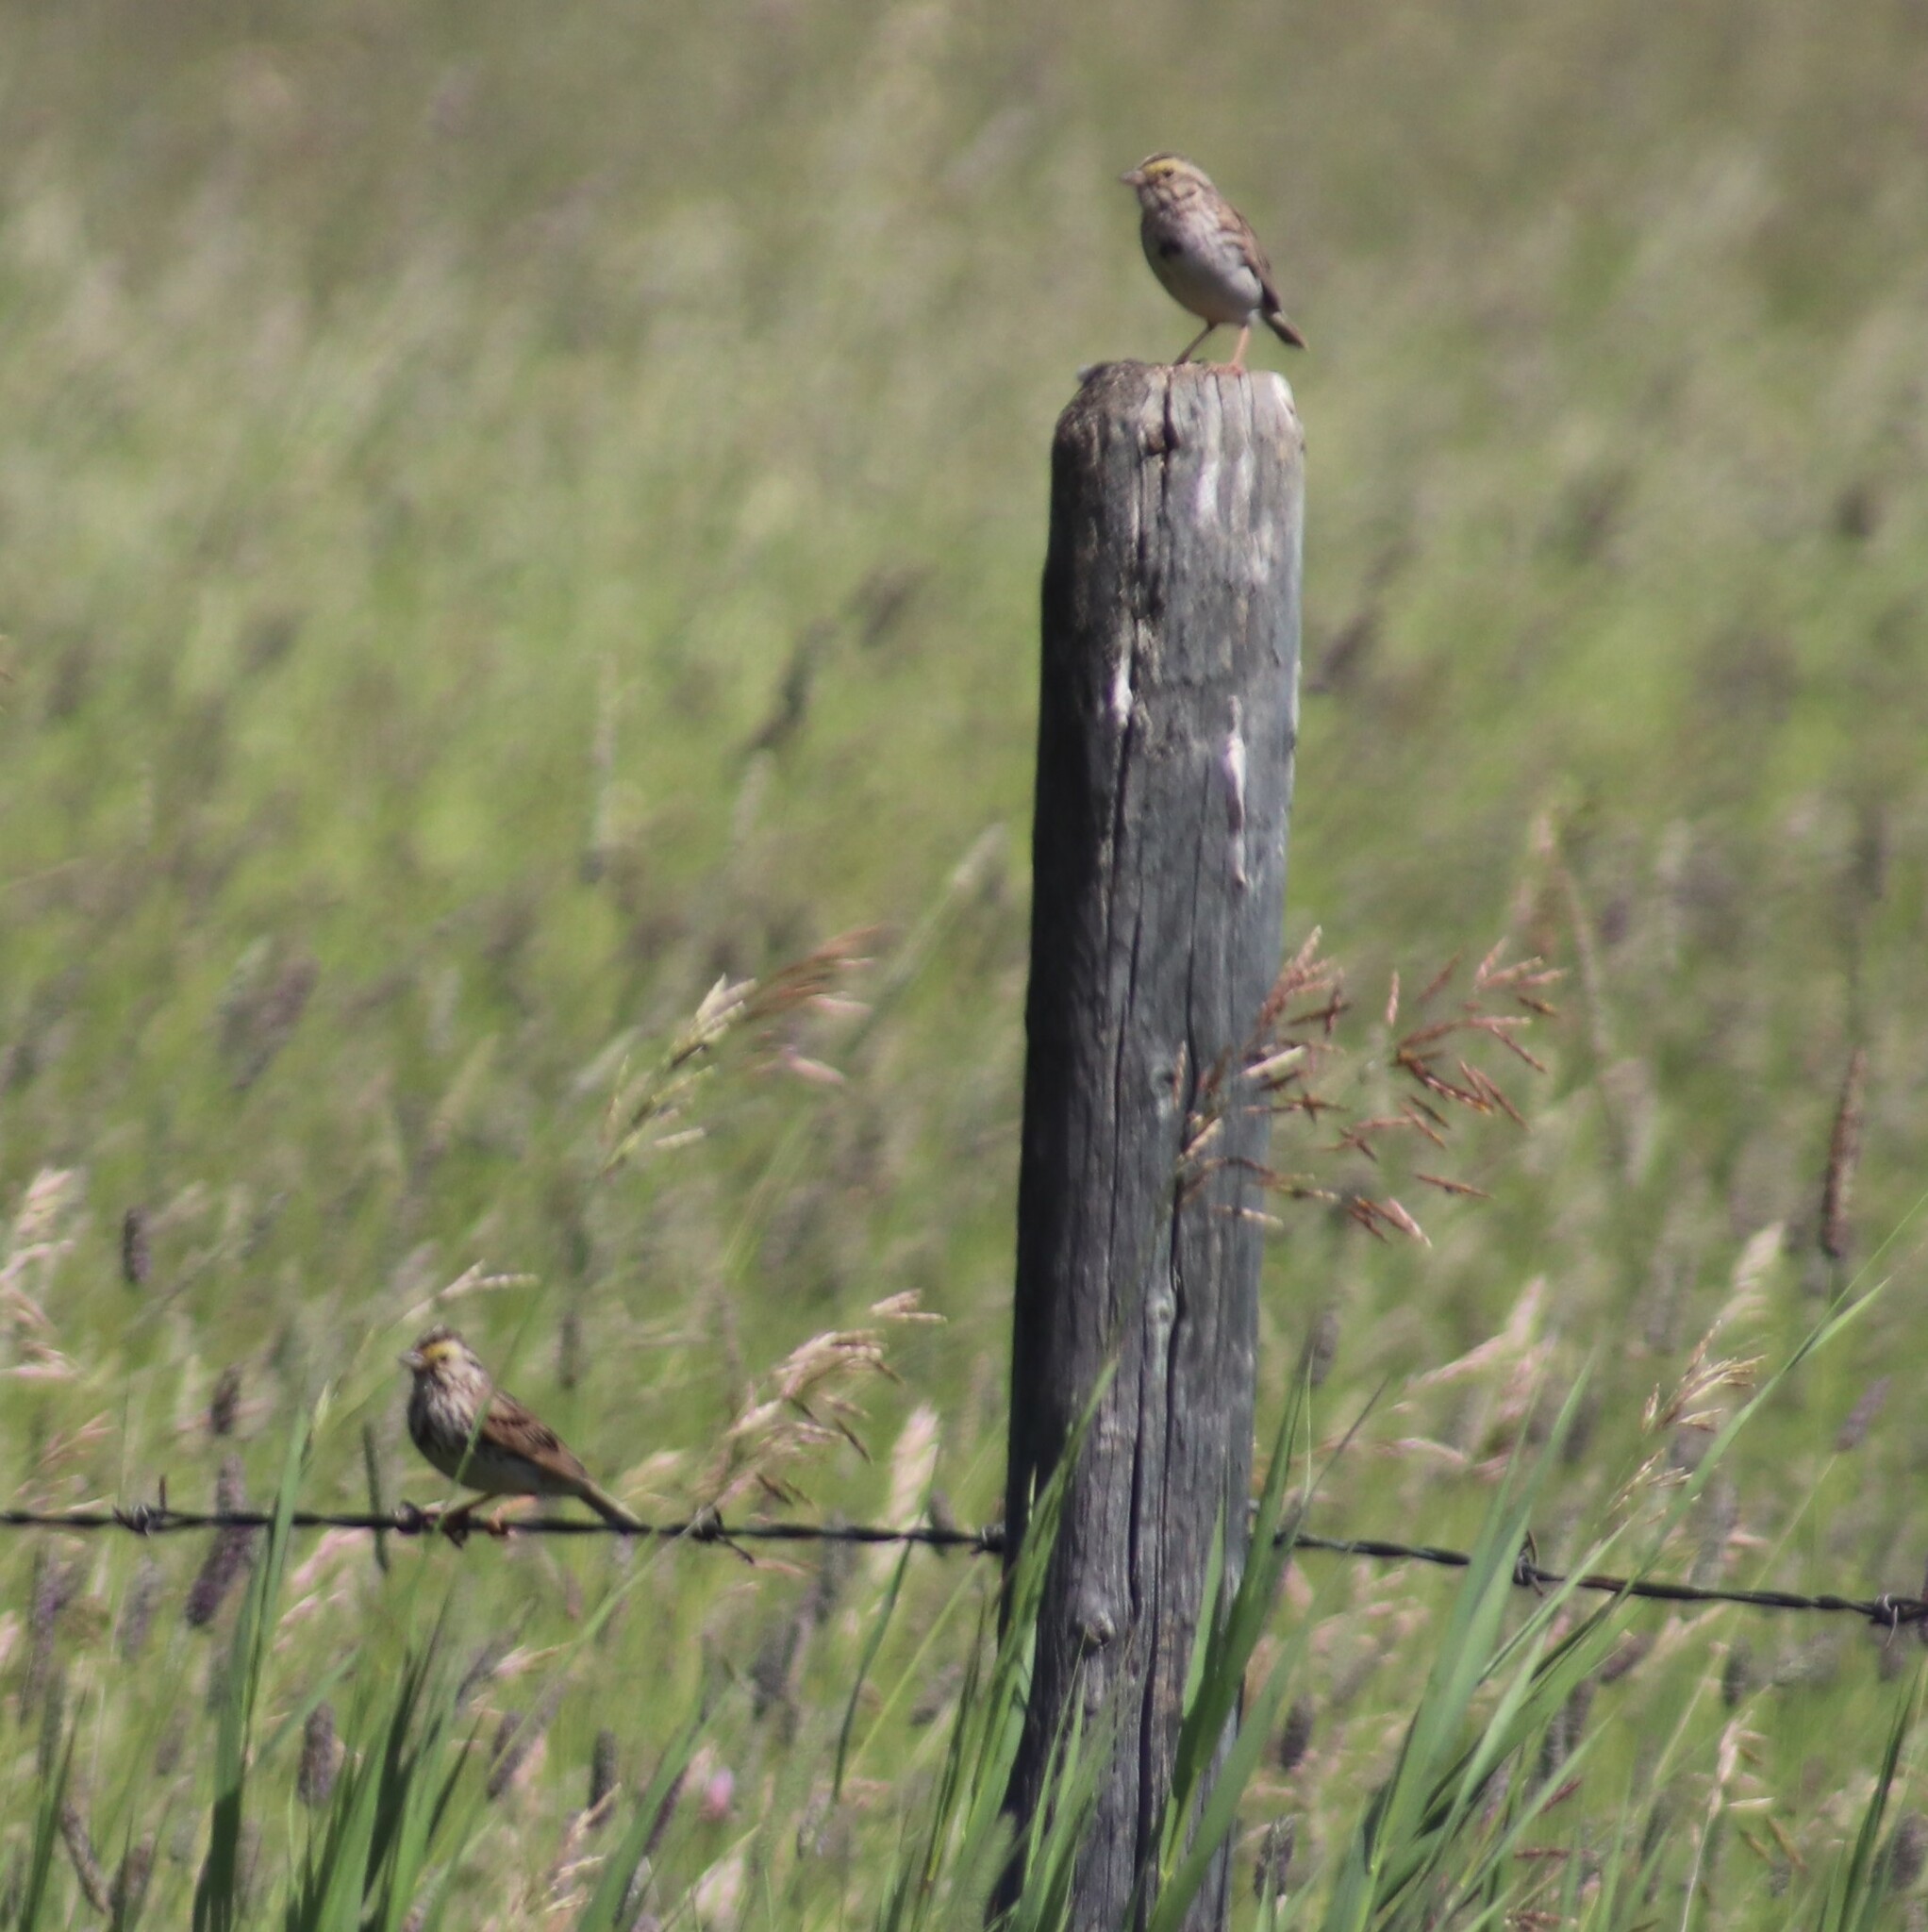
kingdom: Animalia
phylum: Chordata
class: Aves
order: Passeriformes
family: Passerellidae
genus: Passerculus
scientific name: Passerculus sandwichensis
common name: Savannah sparrow
